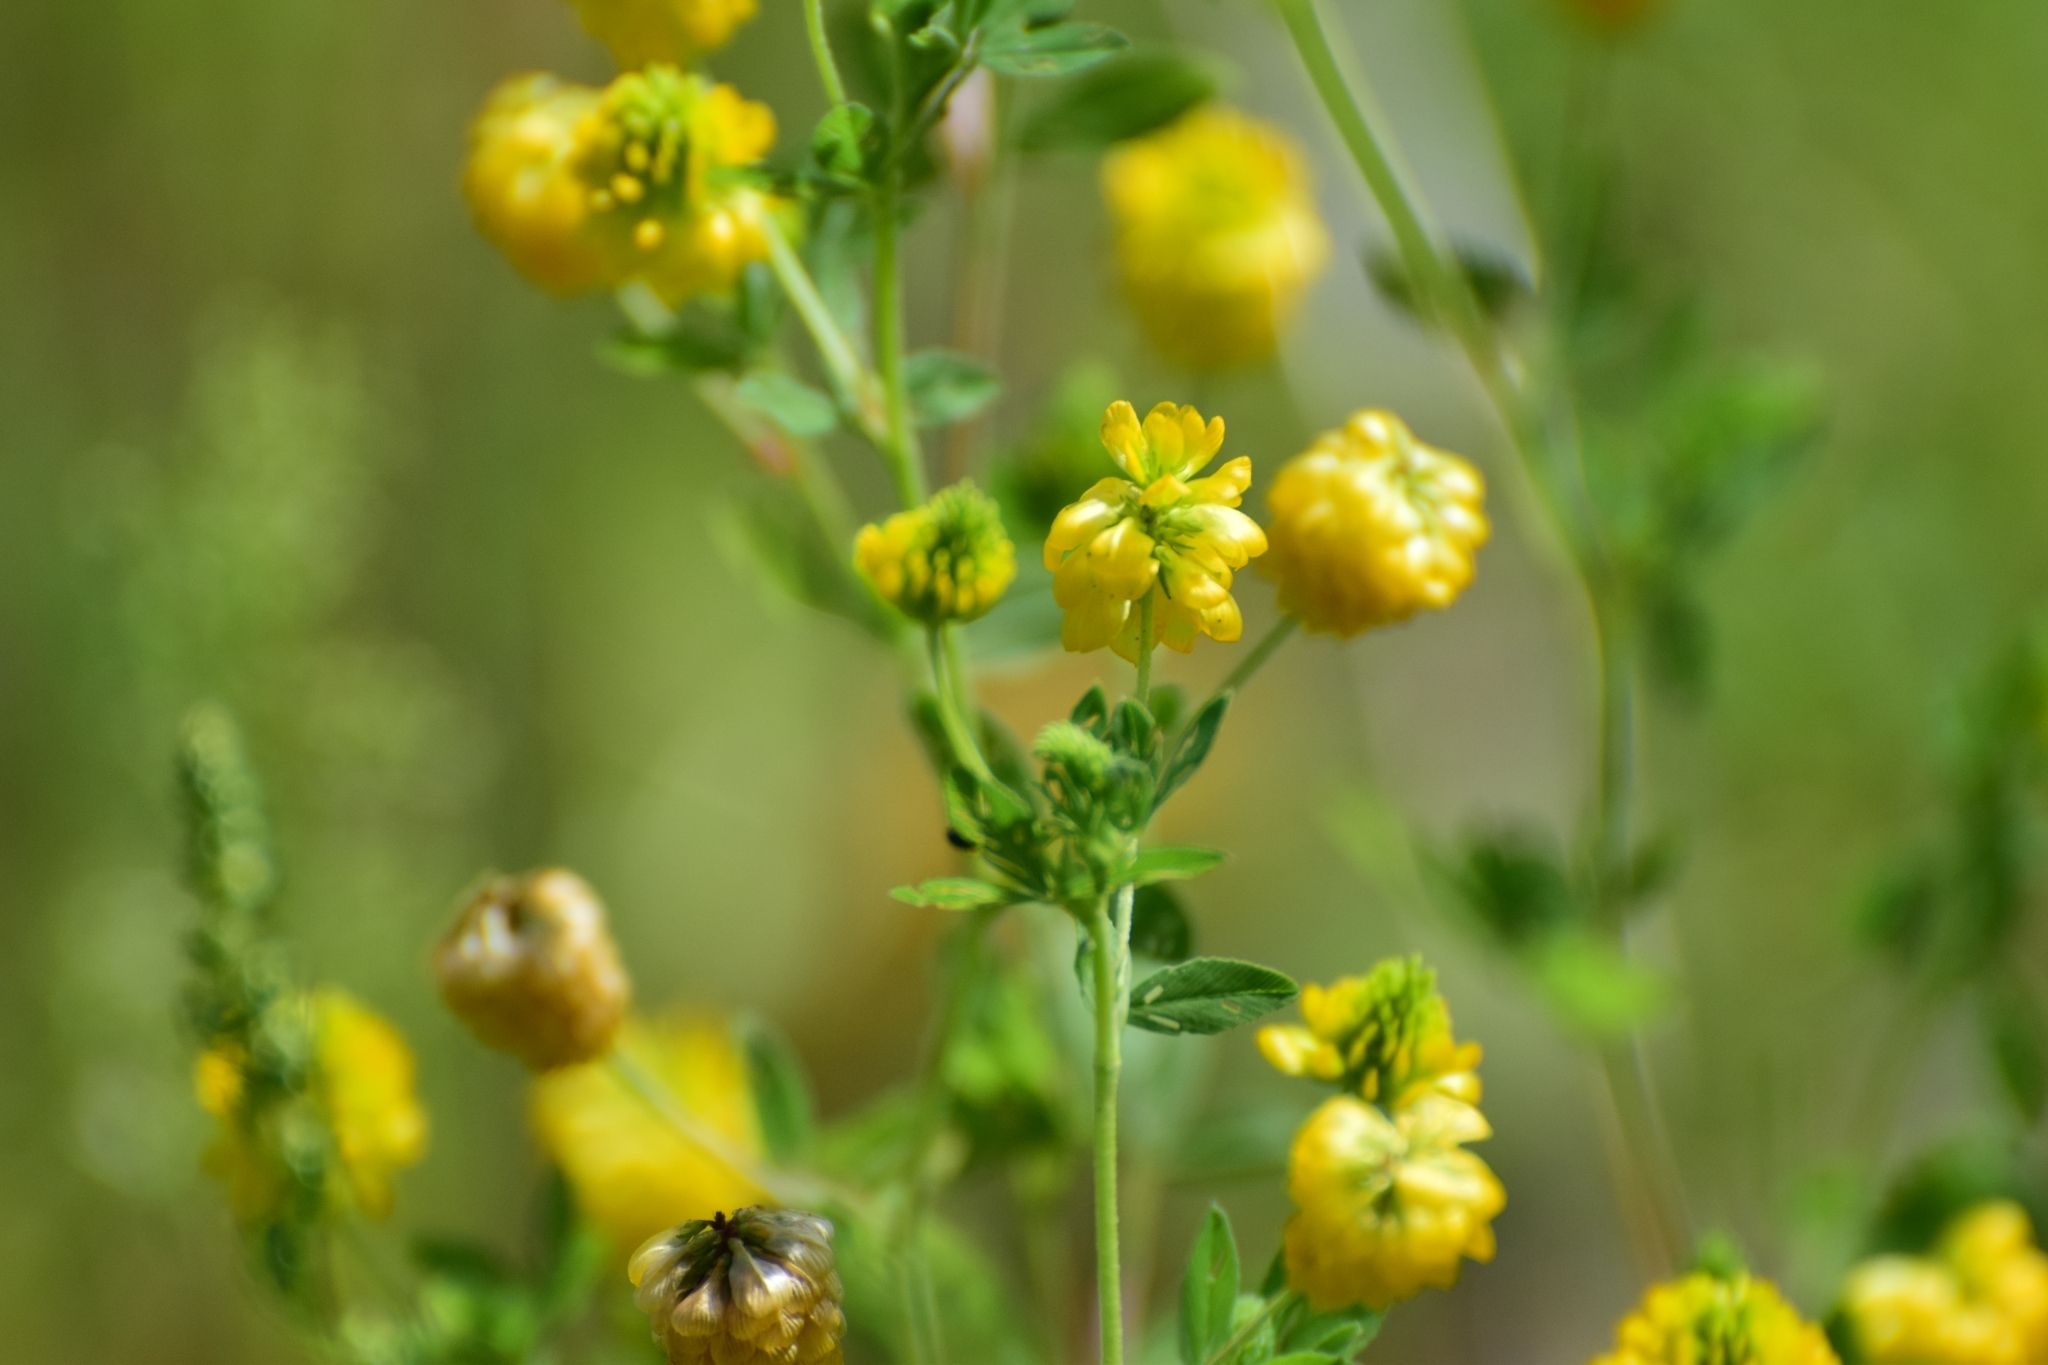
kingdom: Plantae
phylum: Tracheophyta
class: Magnoliopsida
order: Fabales
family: Fabaceae
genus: Trifolium
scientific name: Trifolium aureum
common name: Golden clover
